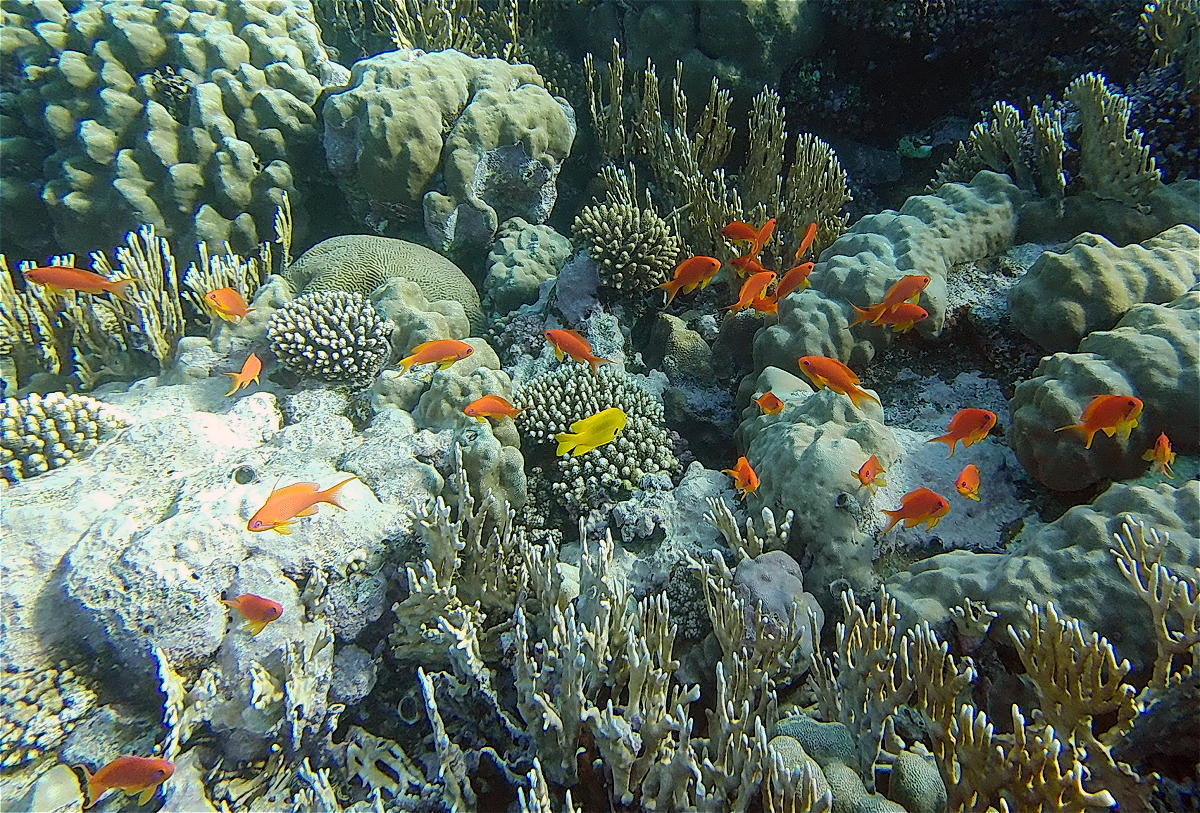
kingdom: Animalia
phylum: Chordata
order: Perciformes
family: Serranidae
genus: Pseudanthias
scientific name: Pseudanthias squamipinnis
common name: Scalefin anthias
